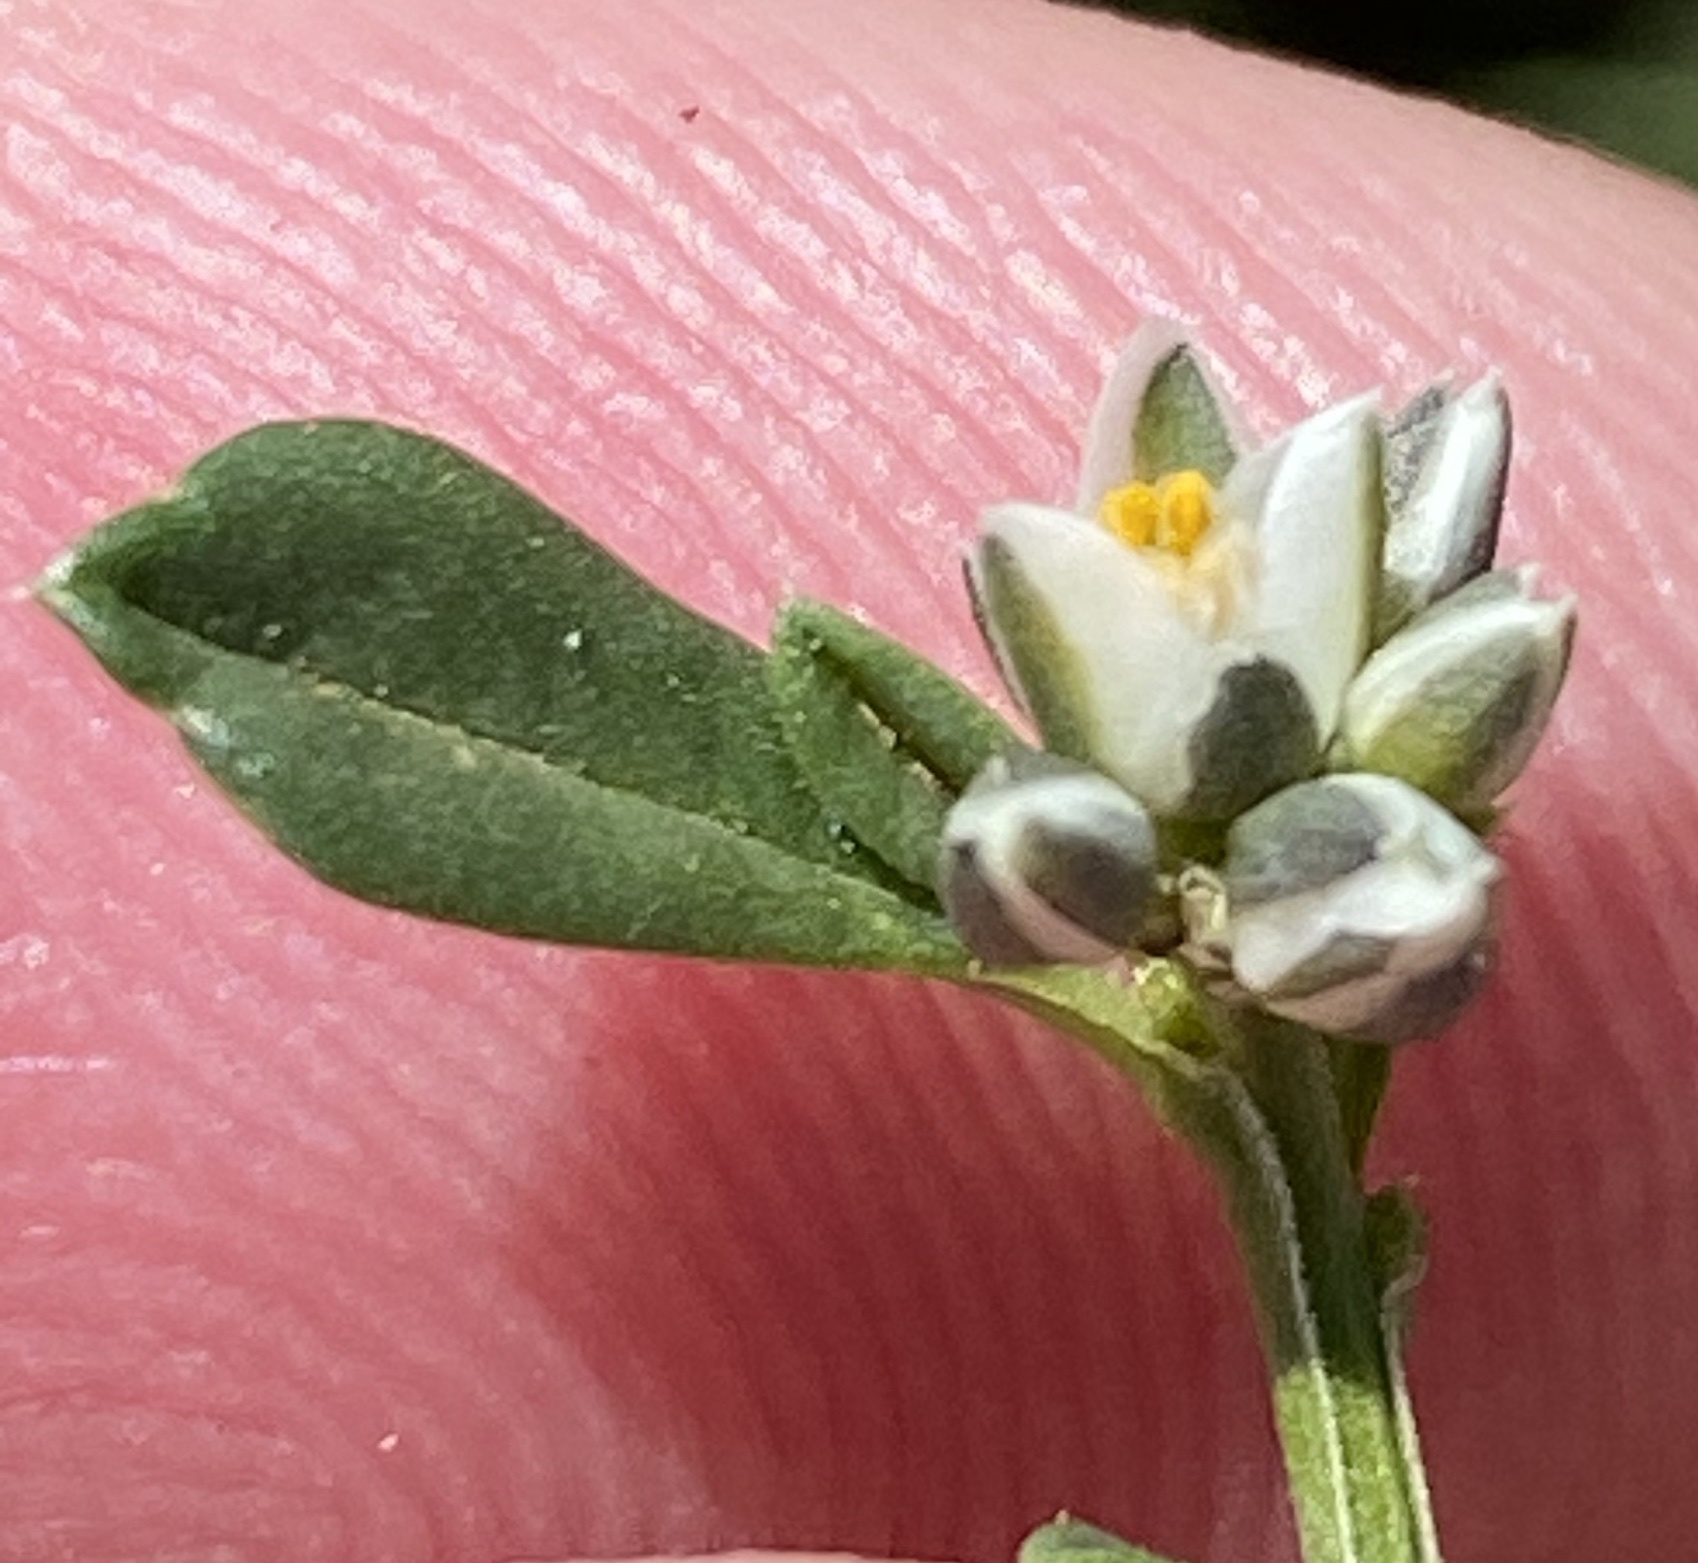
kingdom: Plantae
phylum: Tracheophyta
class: Magnoliopsida
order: Caryophyllales
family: Limeaceae
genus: Limeum
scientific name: Limeum aethiopicum
